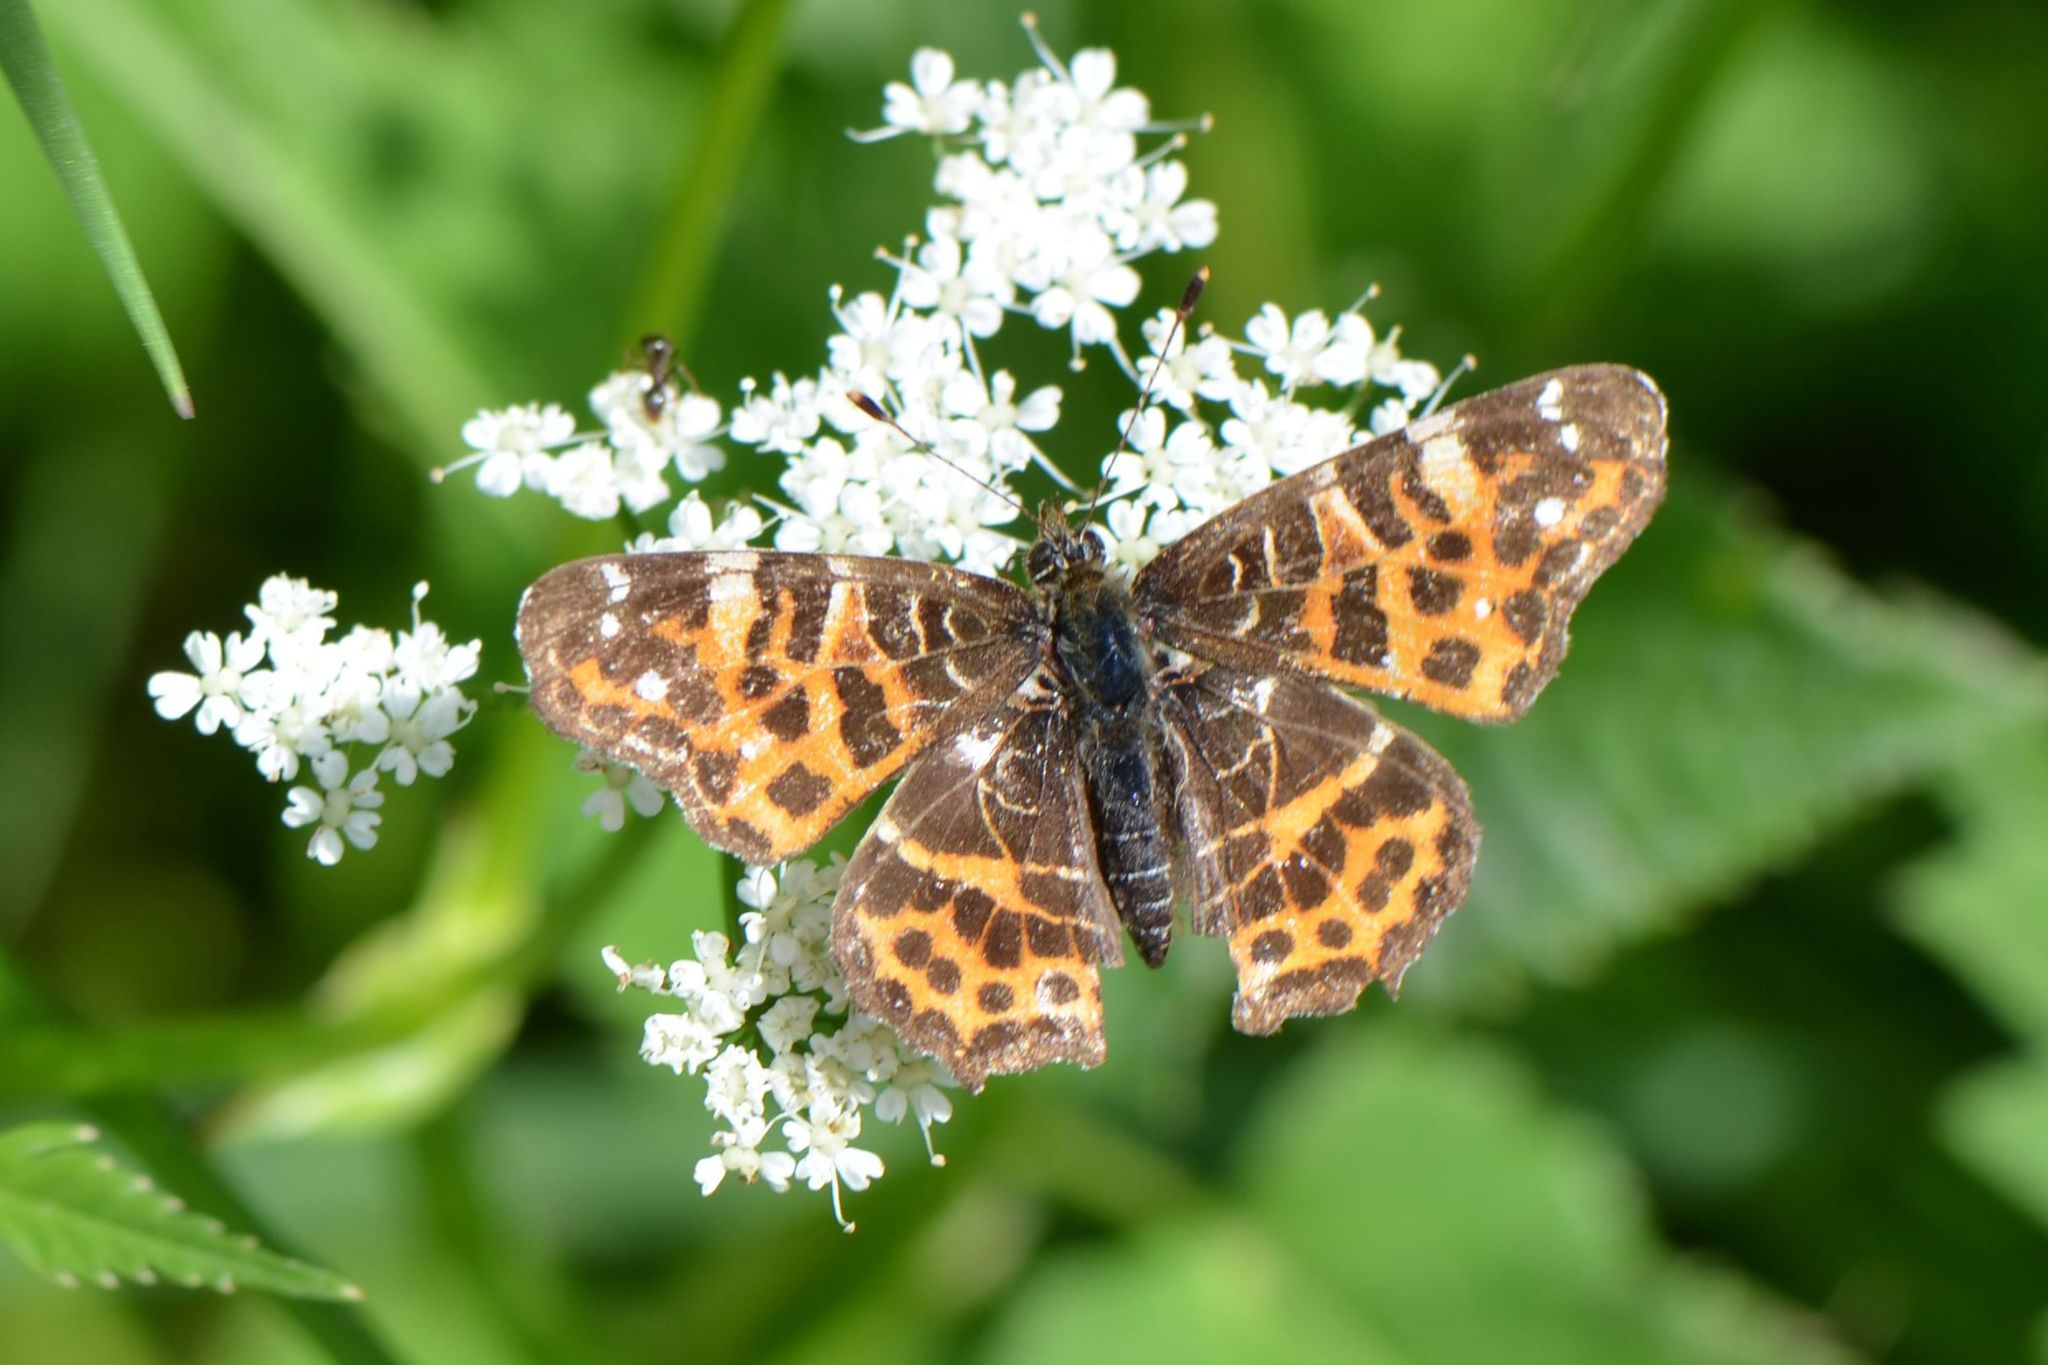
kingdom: Animalia
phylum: Arthropoda
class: Insecta
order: Lepidoptera
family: Nymphalidae
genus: Araschnia
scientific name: Araschnia levana
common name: Map butterfly
